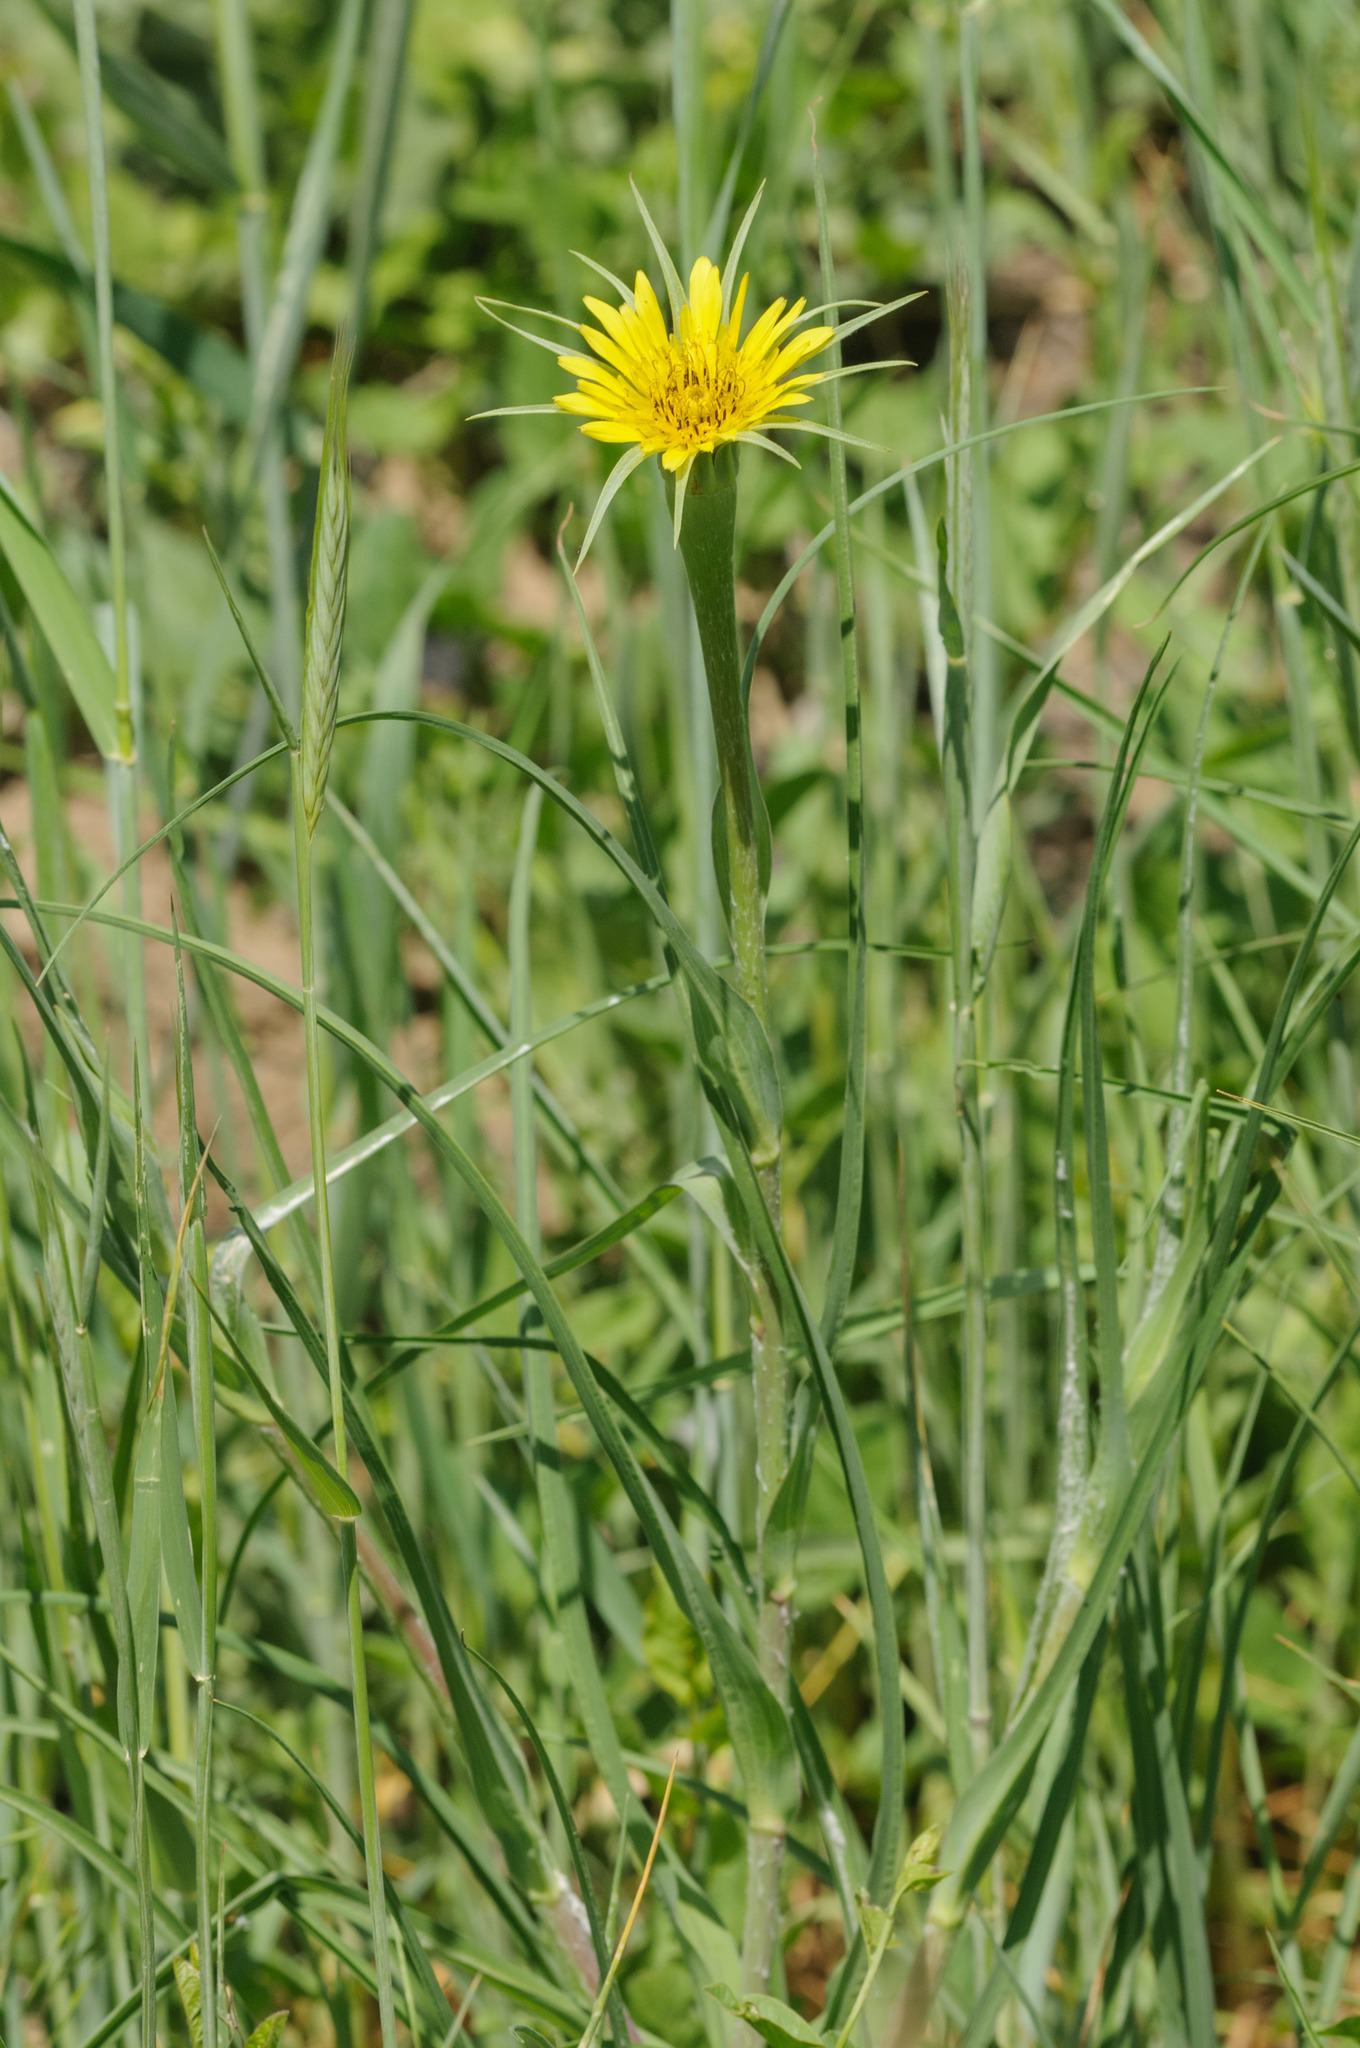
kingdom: Plantae
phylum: Tracheophyta
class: Magnoliopsida
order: Asterales
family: Asteraceae
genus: Tragopogon
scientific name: Tragopogon dubius
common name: Yellow salsify
